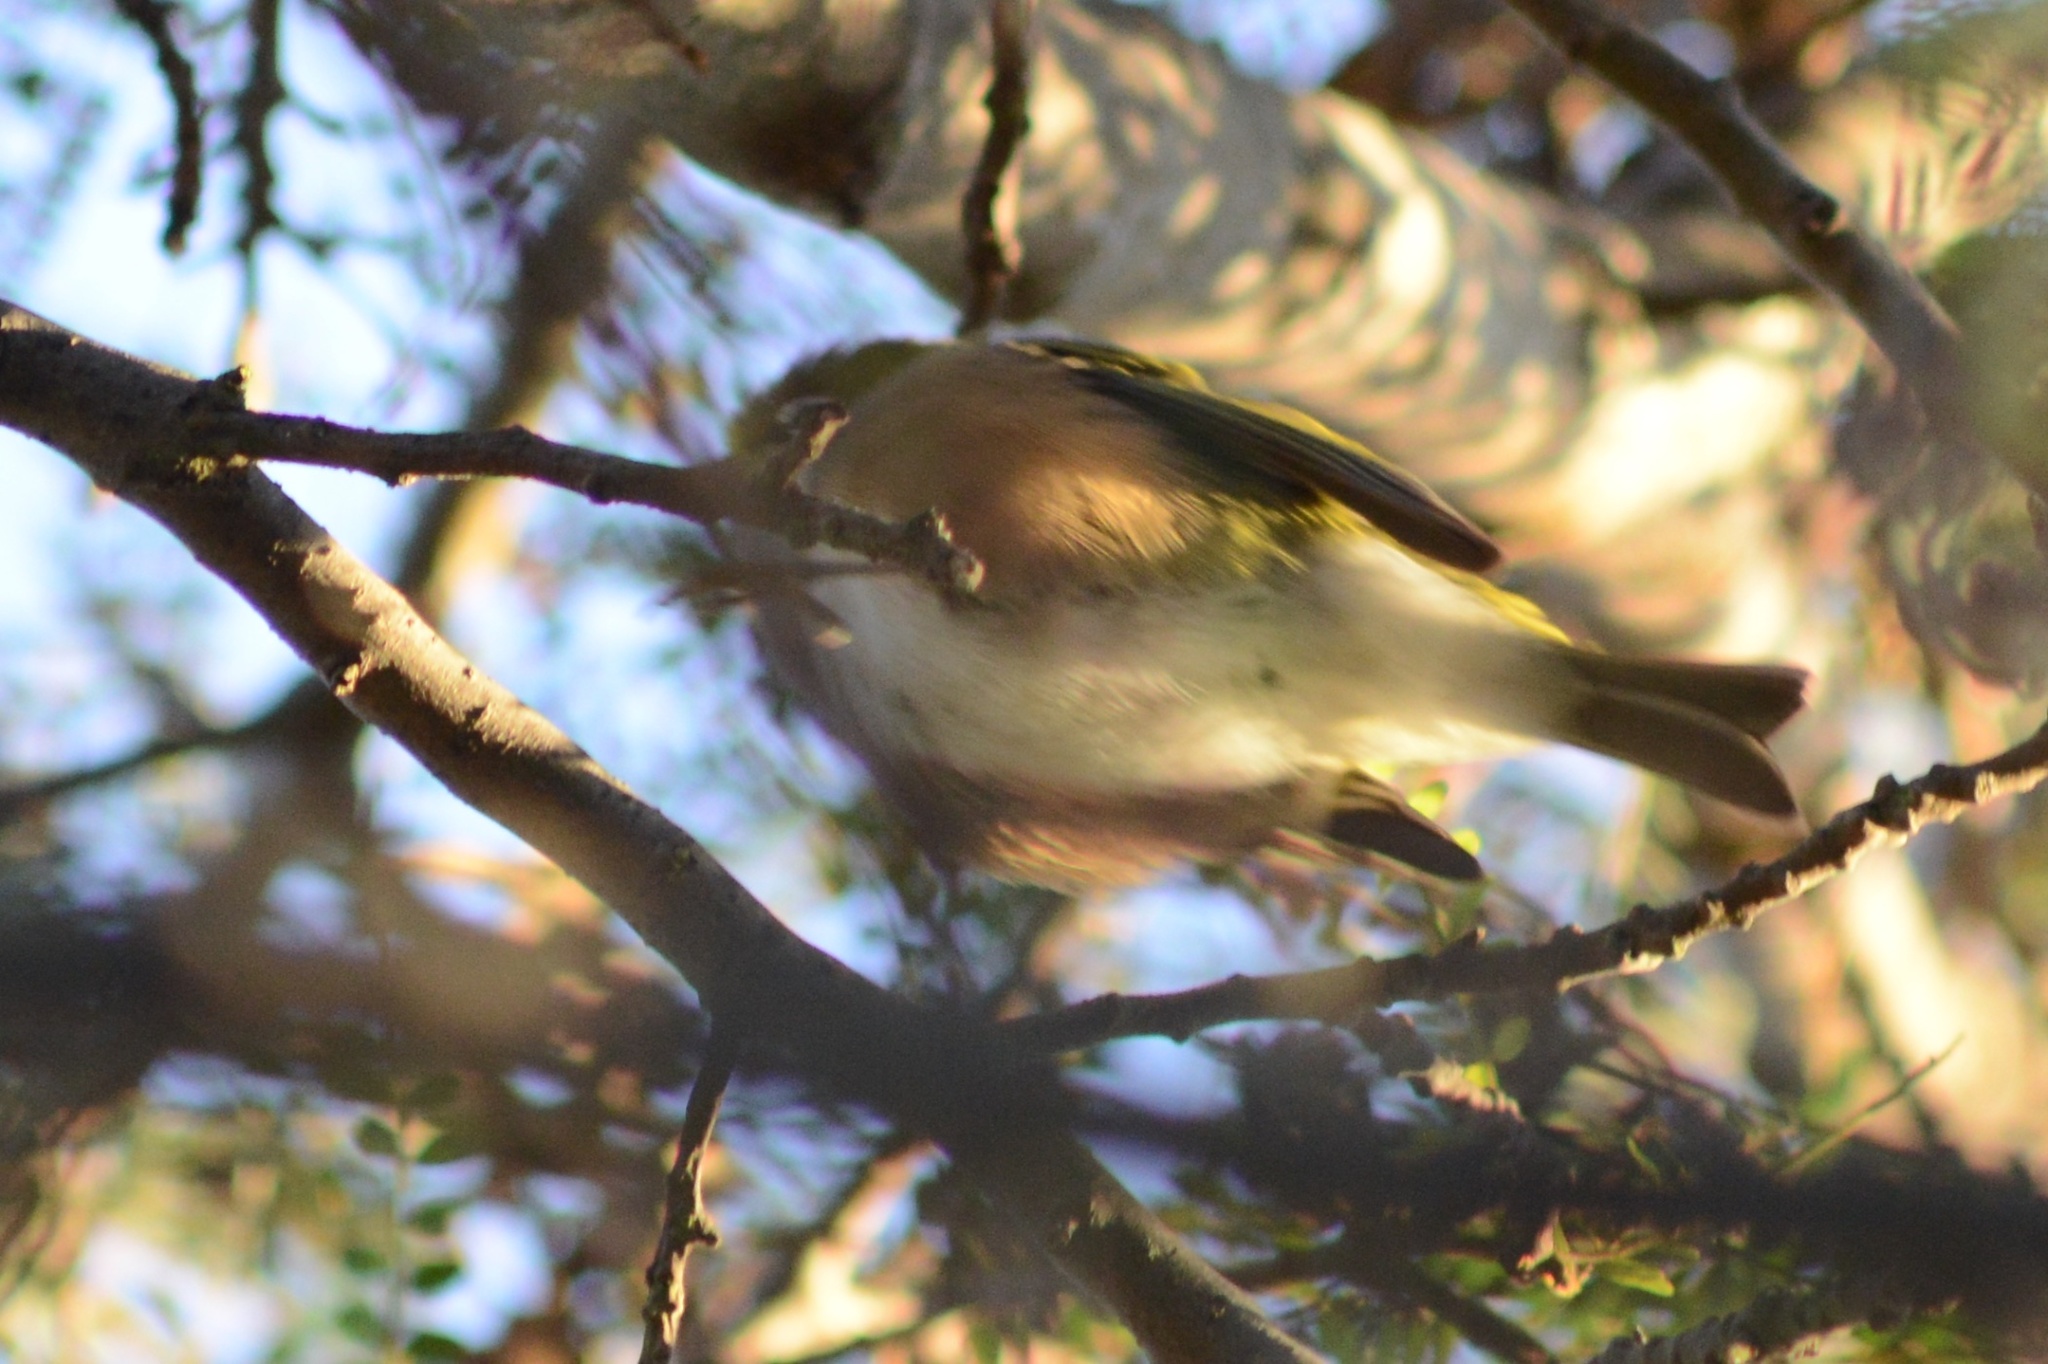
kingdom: Animalia
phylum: Chordata
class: Aves
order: Passeriformes
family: Zosteropidae
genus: Zosterops
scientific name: Zosterops lateralis
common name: Silvereye
